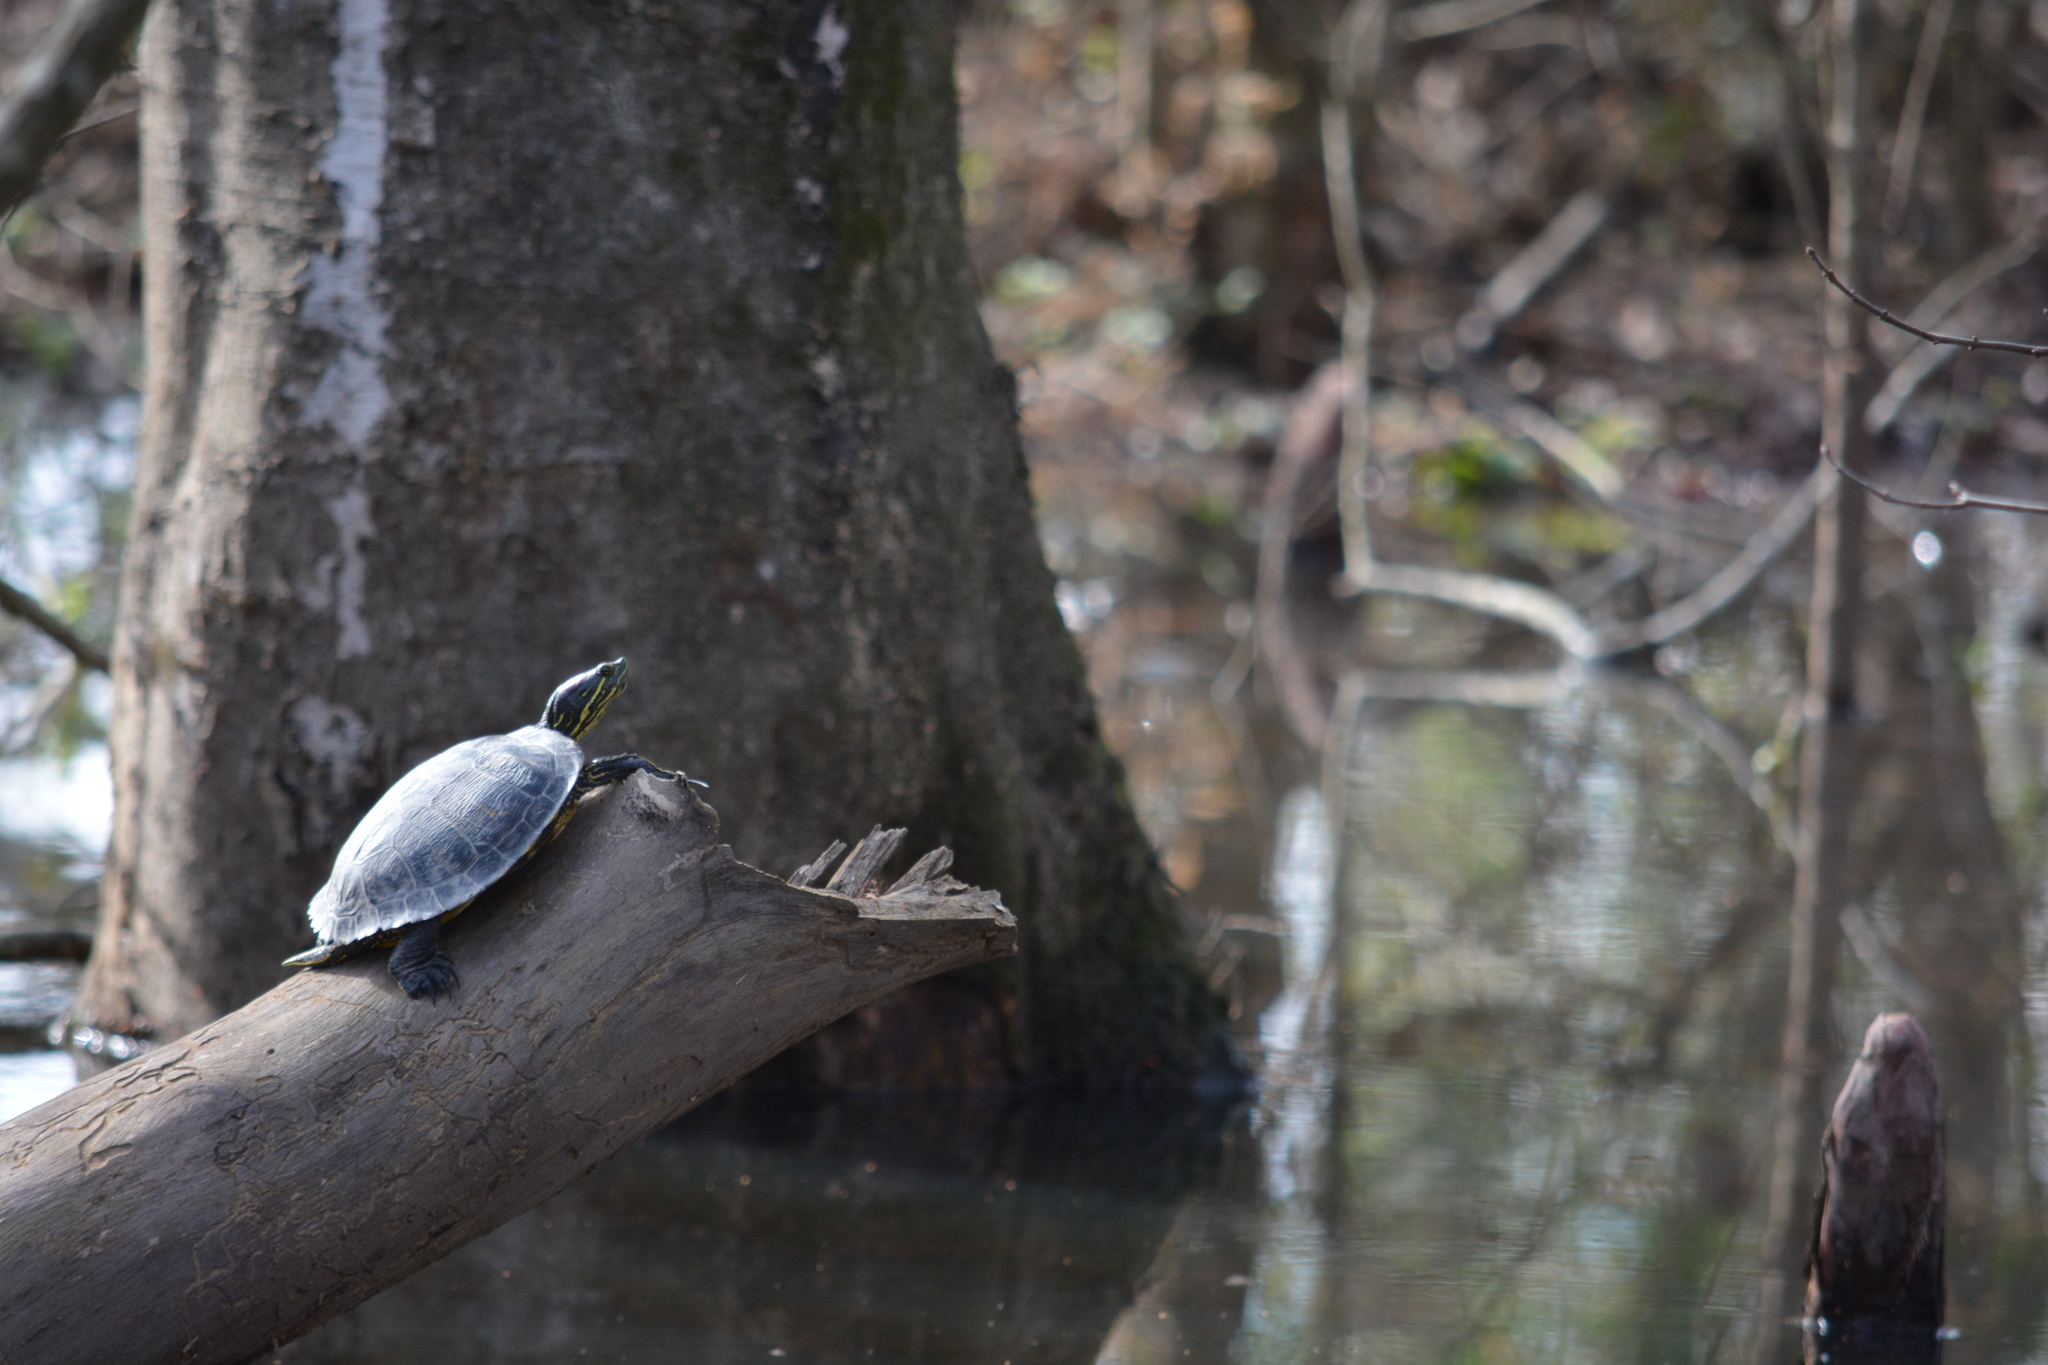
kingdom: Animalia
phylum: Chordata
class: Testudines
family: Emydidae
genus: Trachemys
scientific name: Trachemys scripta
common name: Slider
